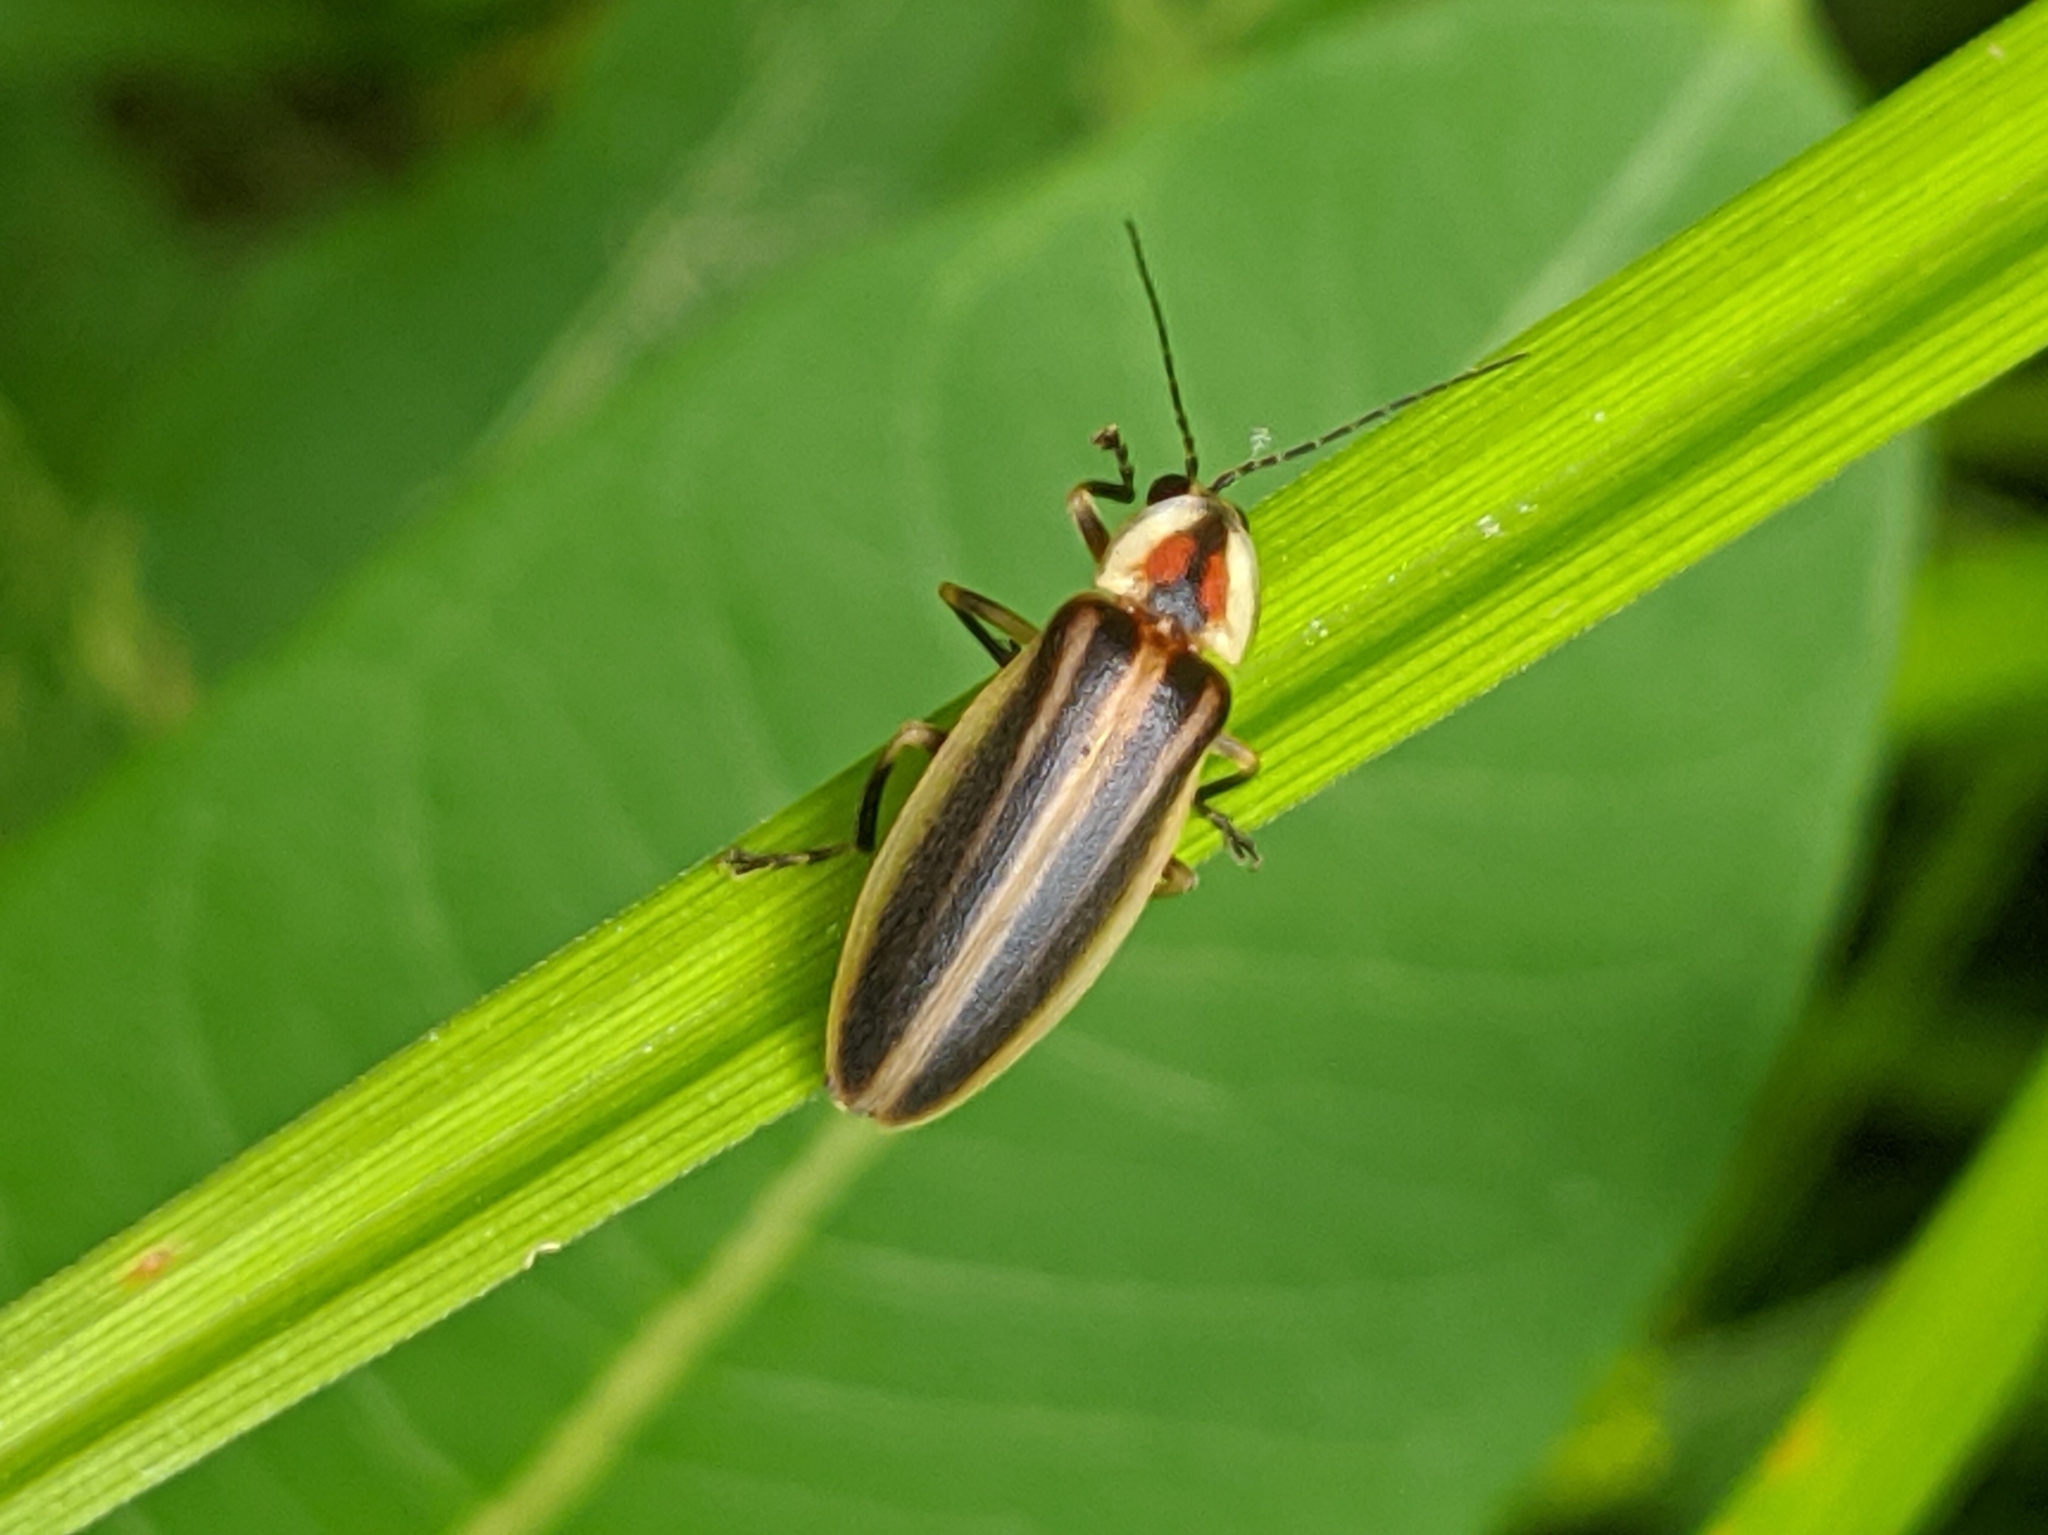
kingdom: Animalia
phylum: Arthropoda
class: Insecta
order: Coleoptera
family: Lampyridae
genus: Photuris
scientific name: Photuris
